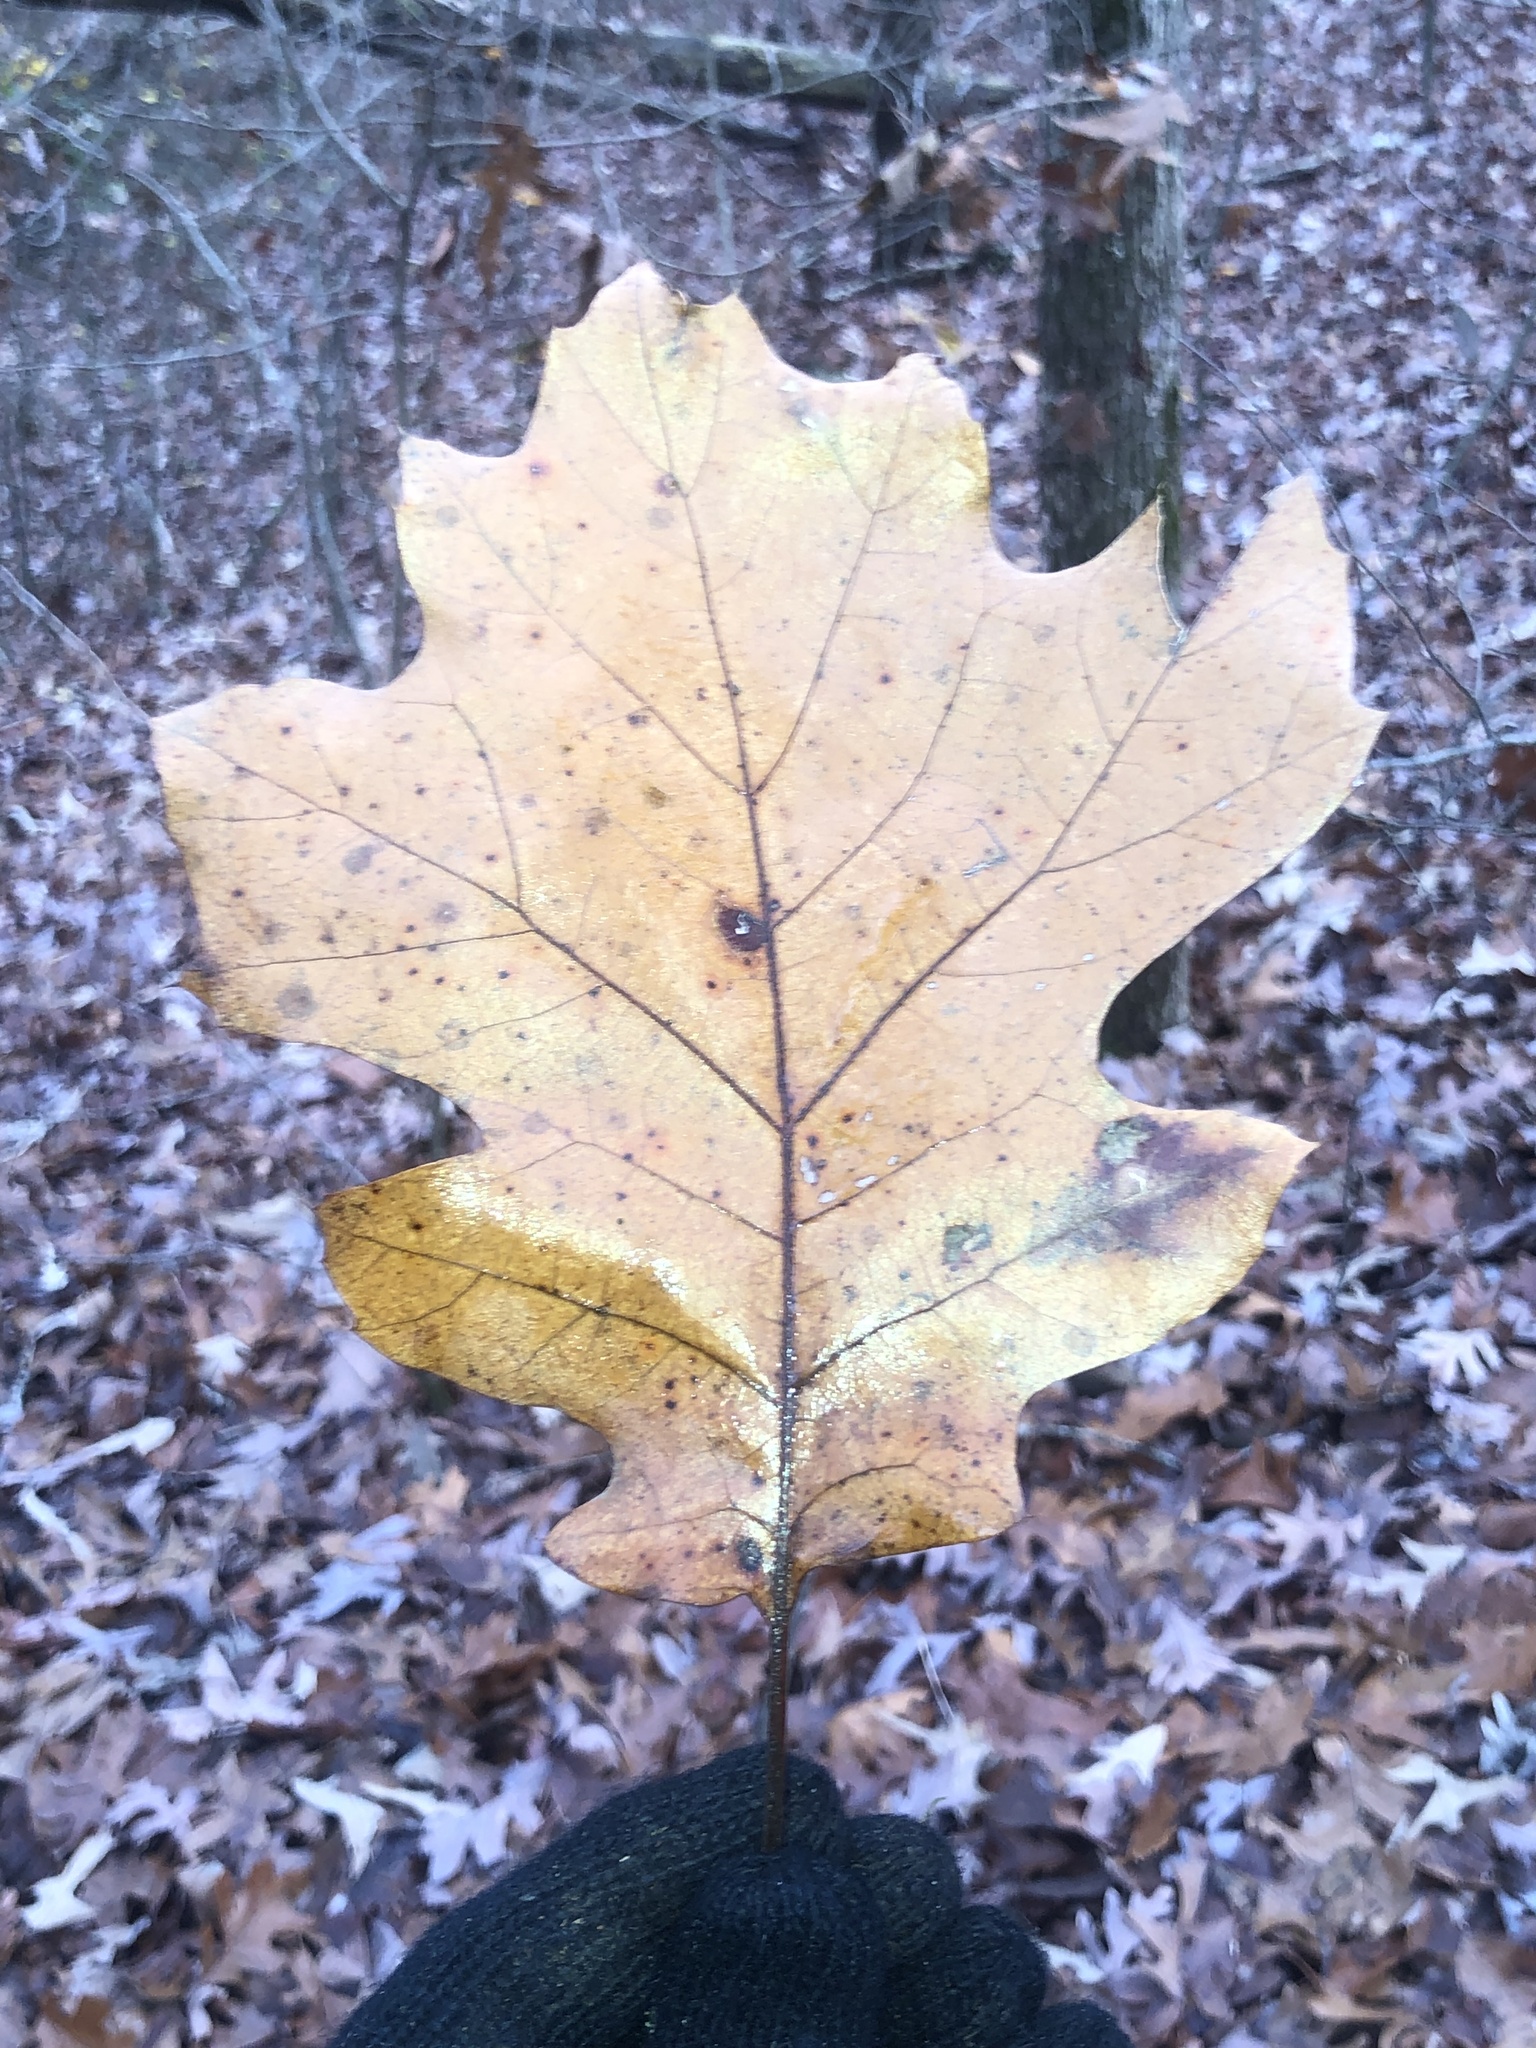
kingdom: Plantae
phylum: Tracheophyta
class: Magnoliopsida
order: Fagales
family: Fagaceae
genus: Quercus
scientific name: Quercus velutina
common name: Black oak
